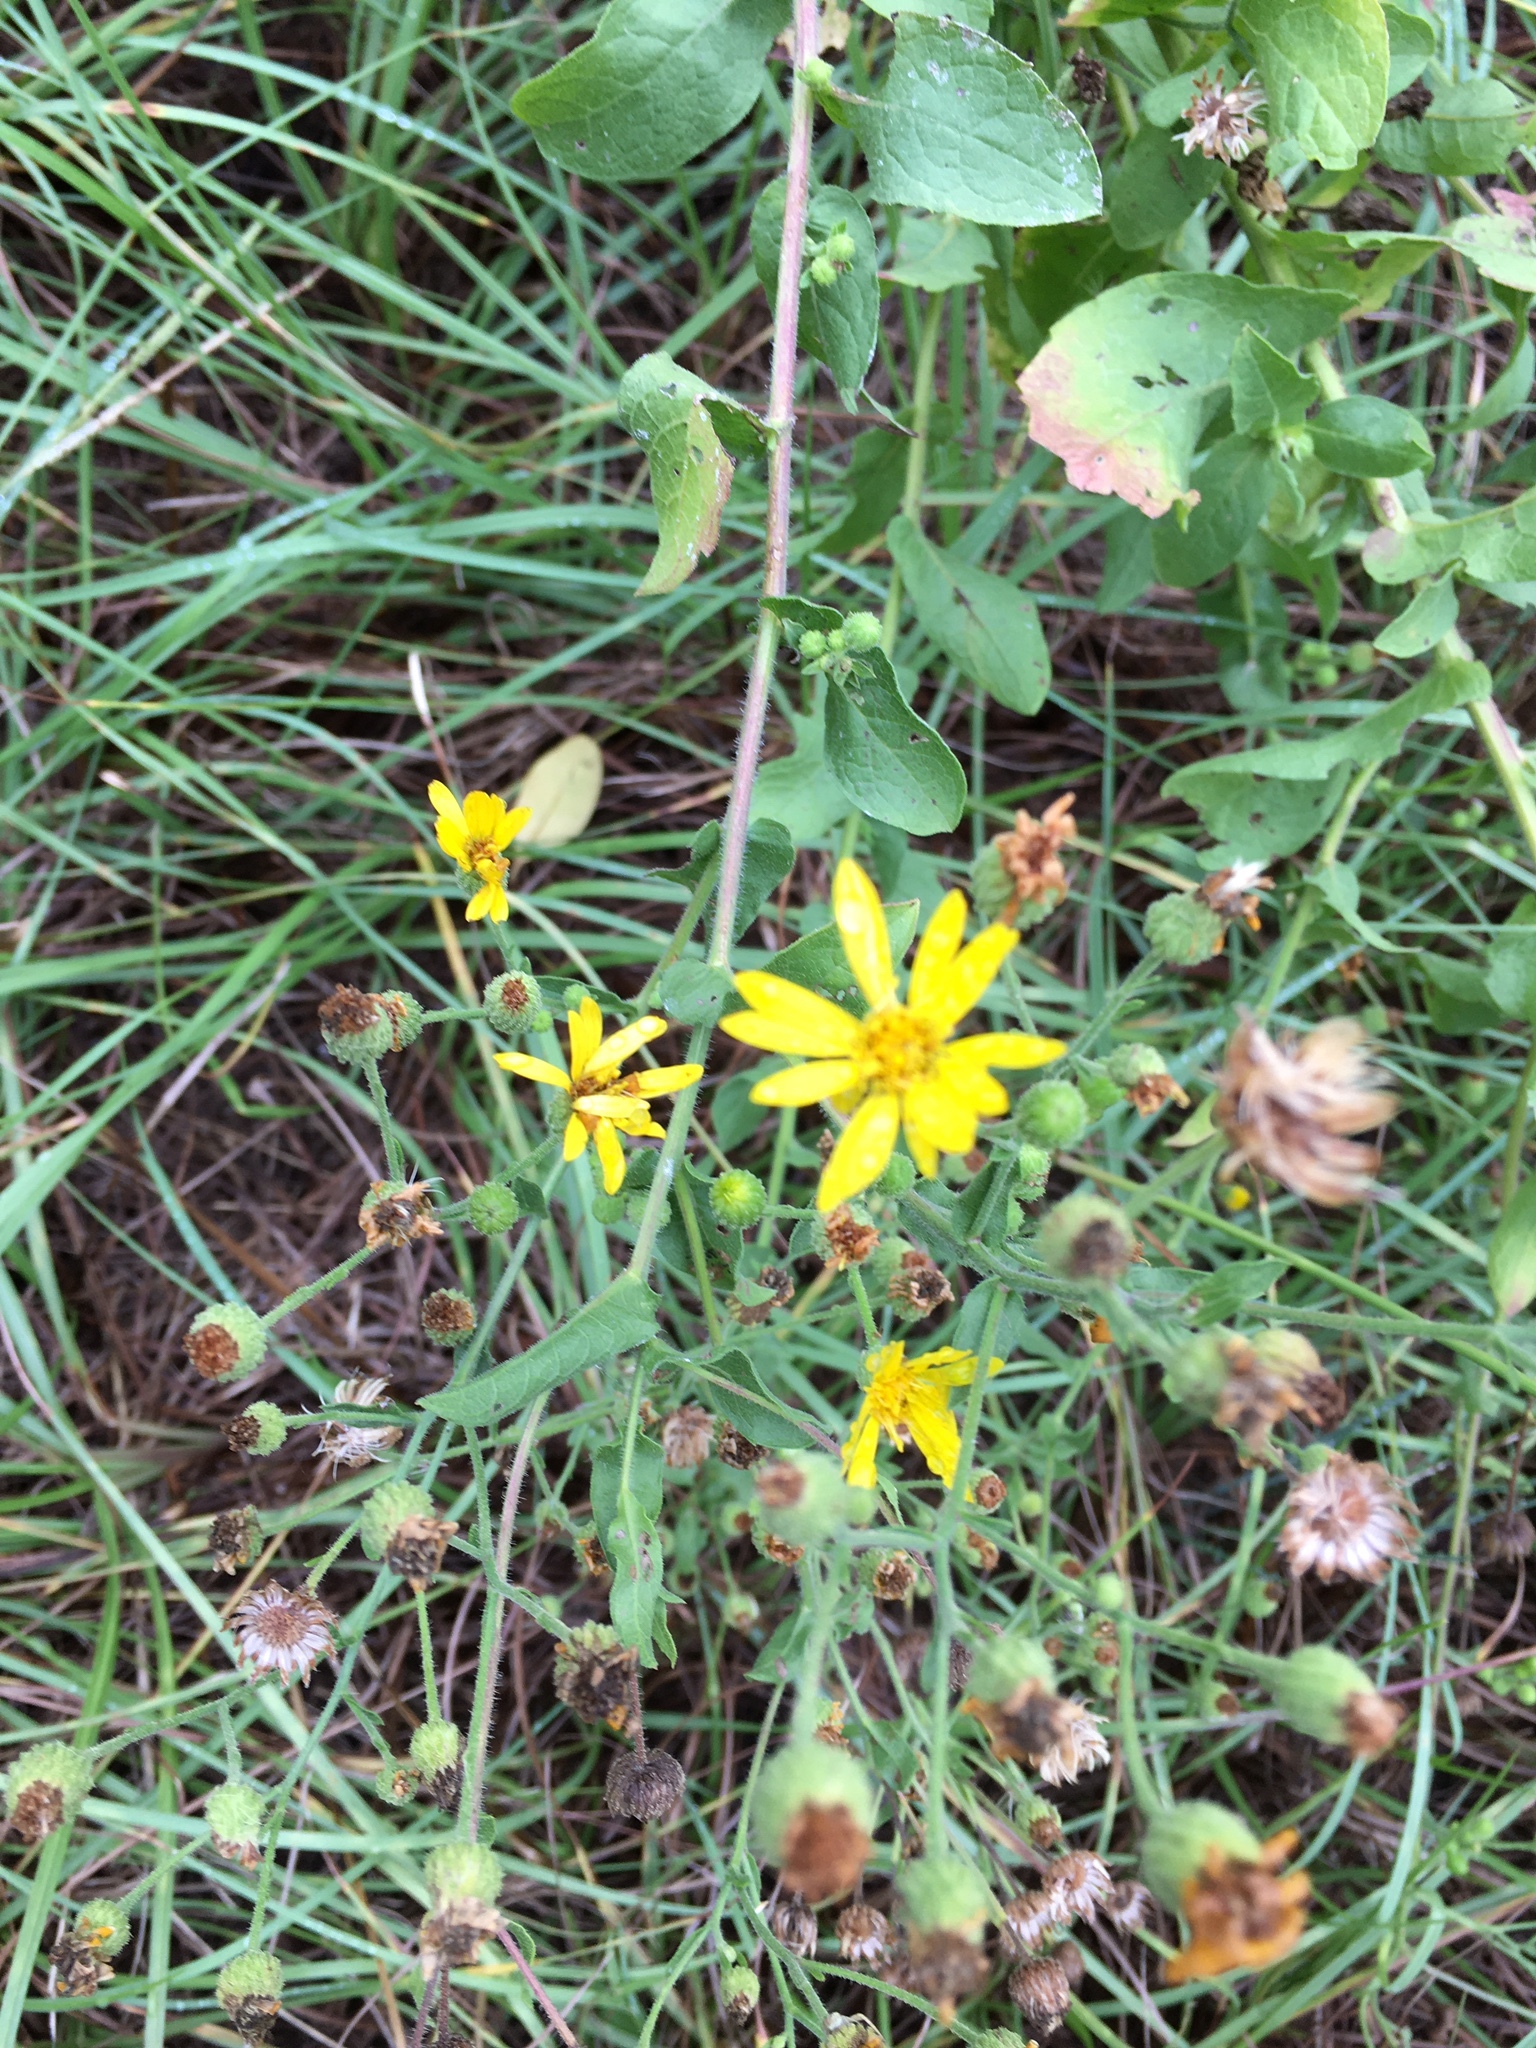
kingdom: Plantae
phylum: Tracheophyta
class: Magnoliopsida
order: Asterales
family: Asteraceae
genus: Heterotheca
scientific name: Heterotheca subaxillaris
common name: Camphorweed
